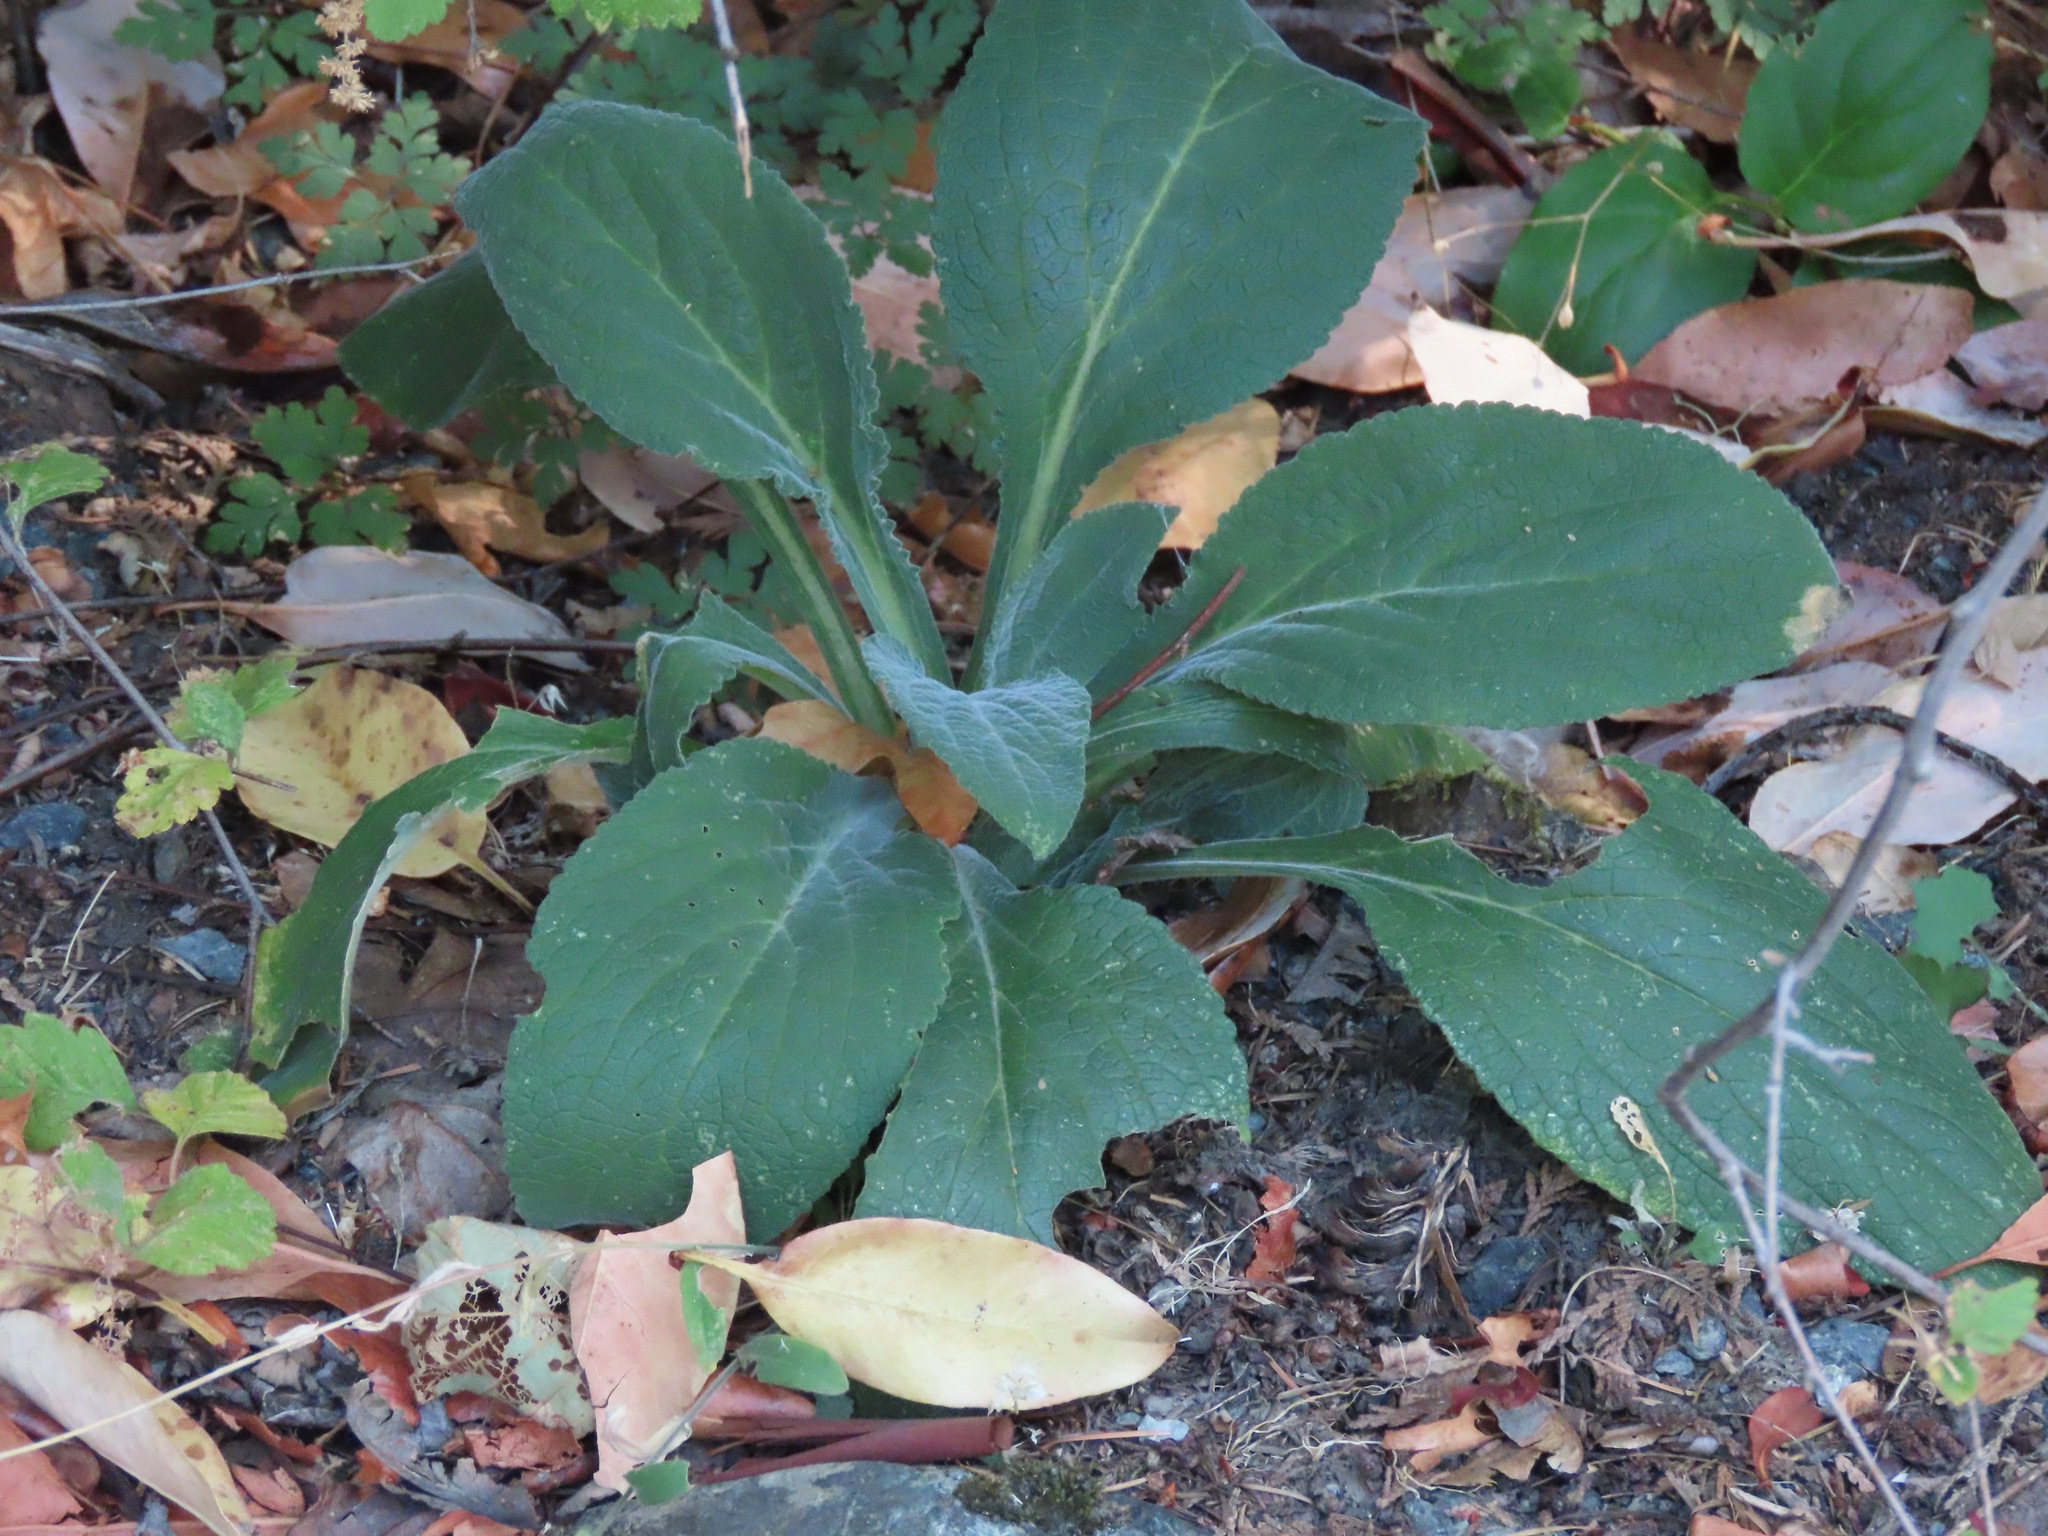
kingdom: Plantae
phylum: Tracheophyta
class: Magnoliopsida
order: Lamiales
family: Plantaginaceae
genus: Digitalis
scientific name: Digitalis purpurea
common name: Foxglove
